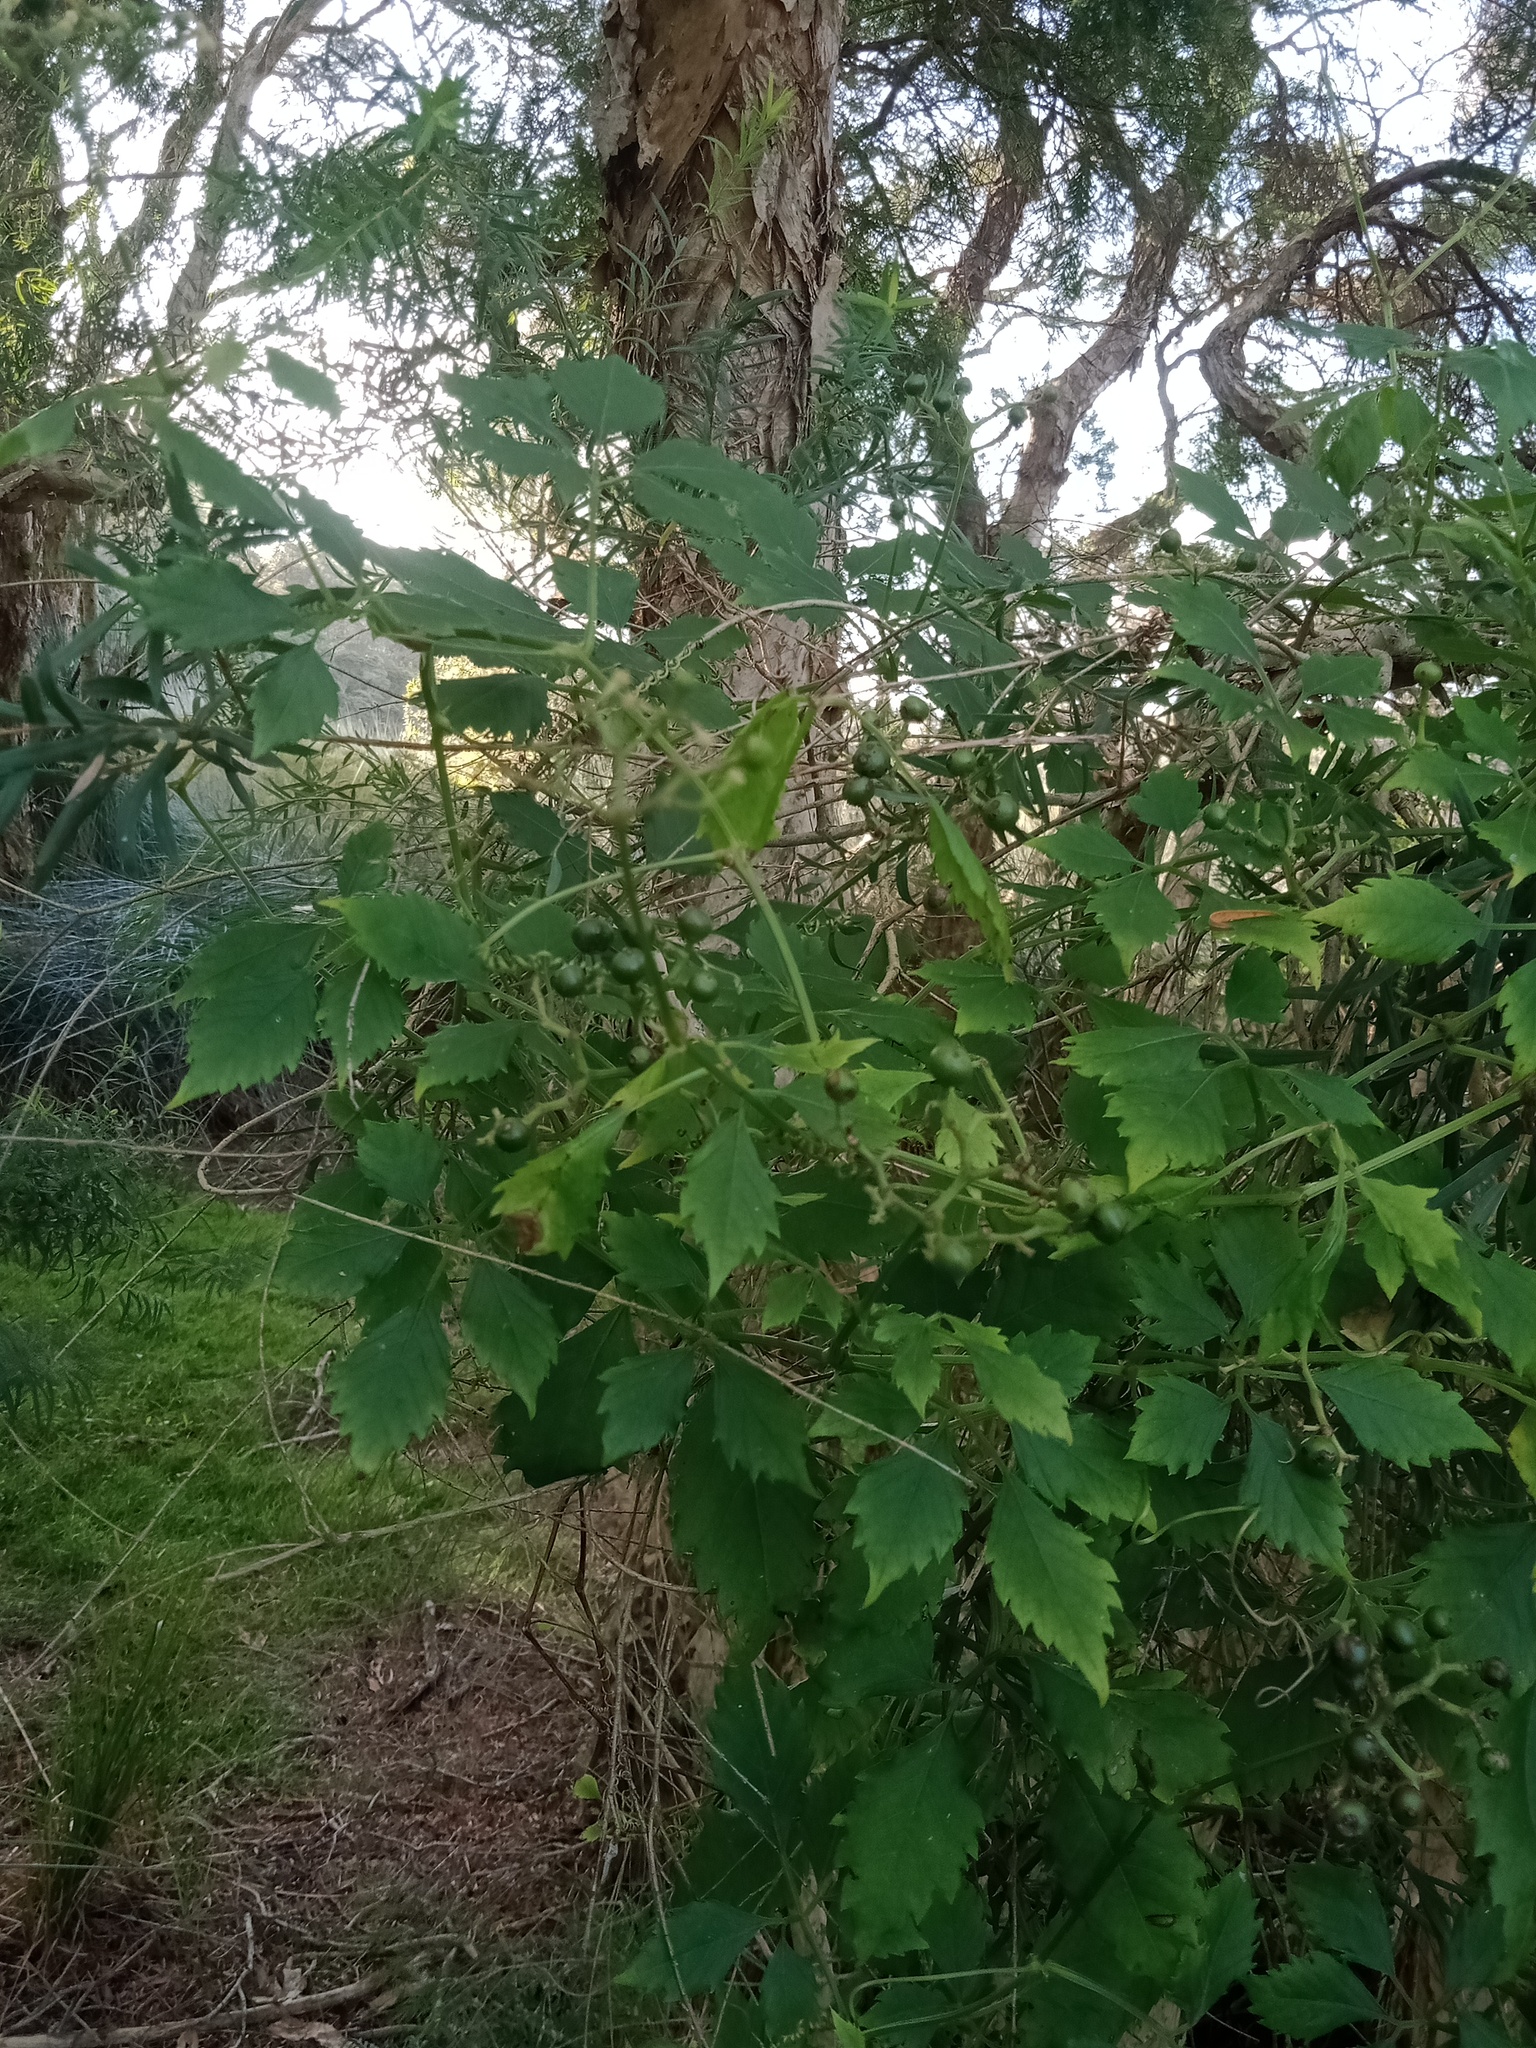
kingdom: Plantae
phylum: Tracheophyta
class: Magnoliopsida
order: Vitales
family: Vitaceae
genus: Causonis
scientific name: Causonis clematidea
